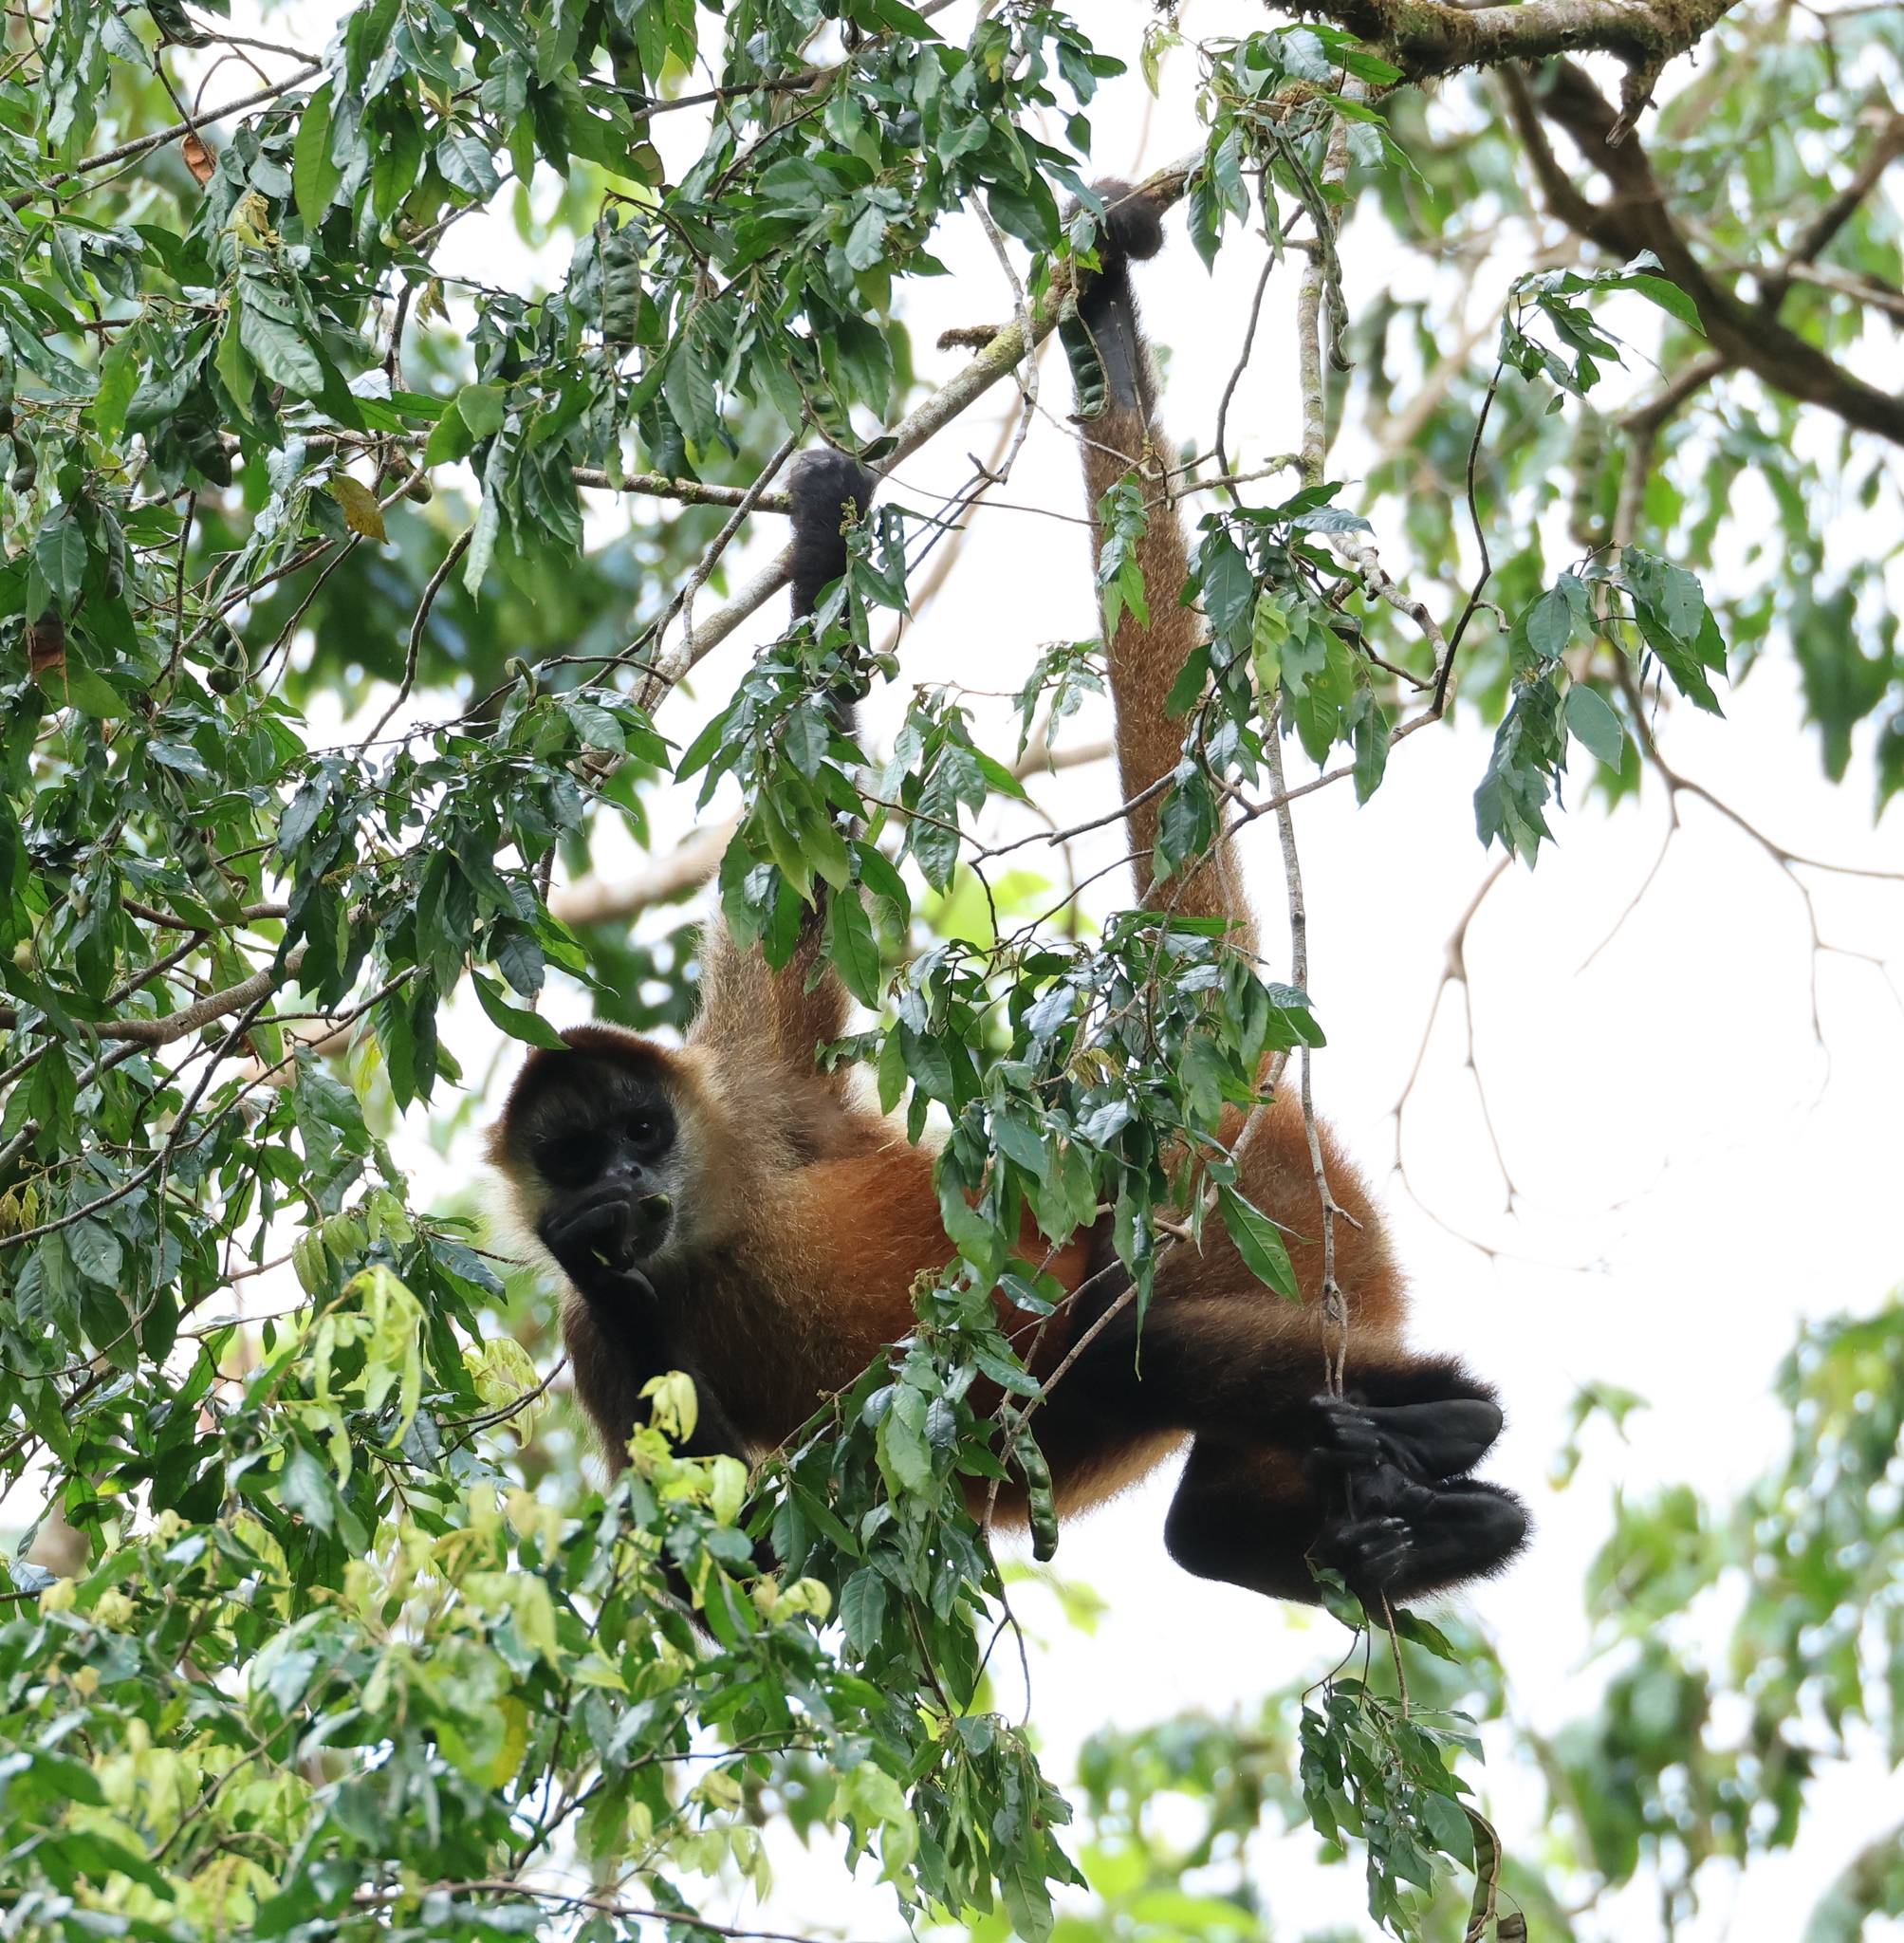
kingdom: Animalia
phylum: Chordata
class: Mammalia
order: Primates
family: Atelidae
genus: Ateles
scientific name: Ateles geoffroyi
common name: Black-handed spider monkey
